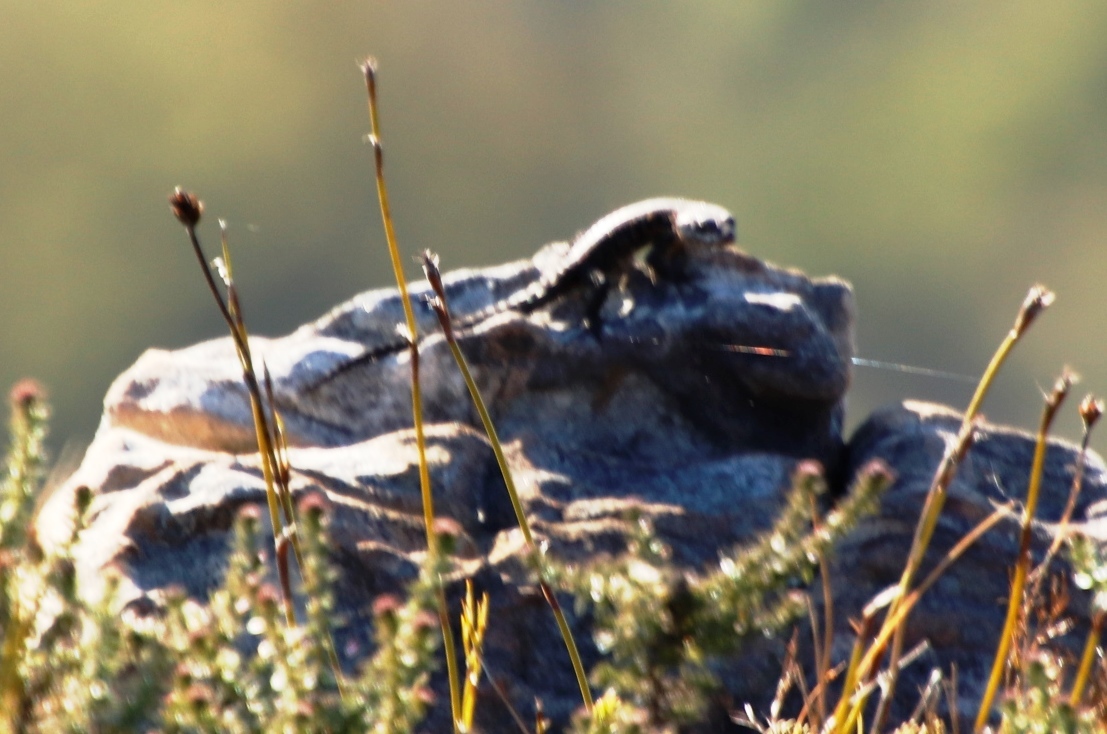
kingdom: Animalia
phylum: Chordata
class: Squamata
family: Cordylidae
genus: Cordylus
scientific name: Cordylus niger
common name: Black girdled lizard
